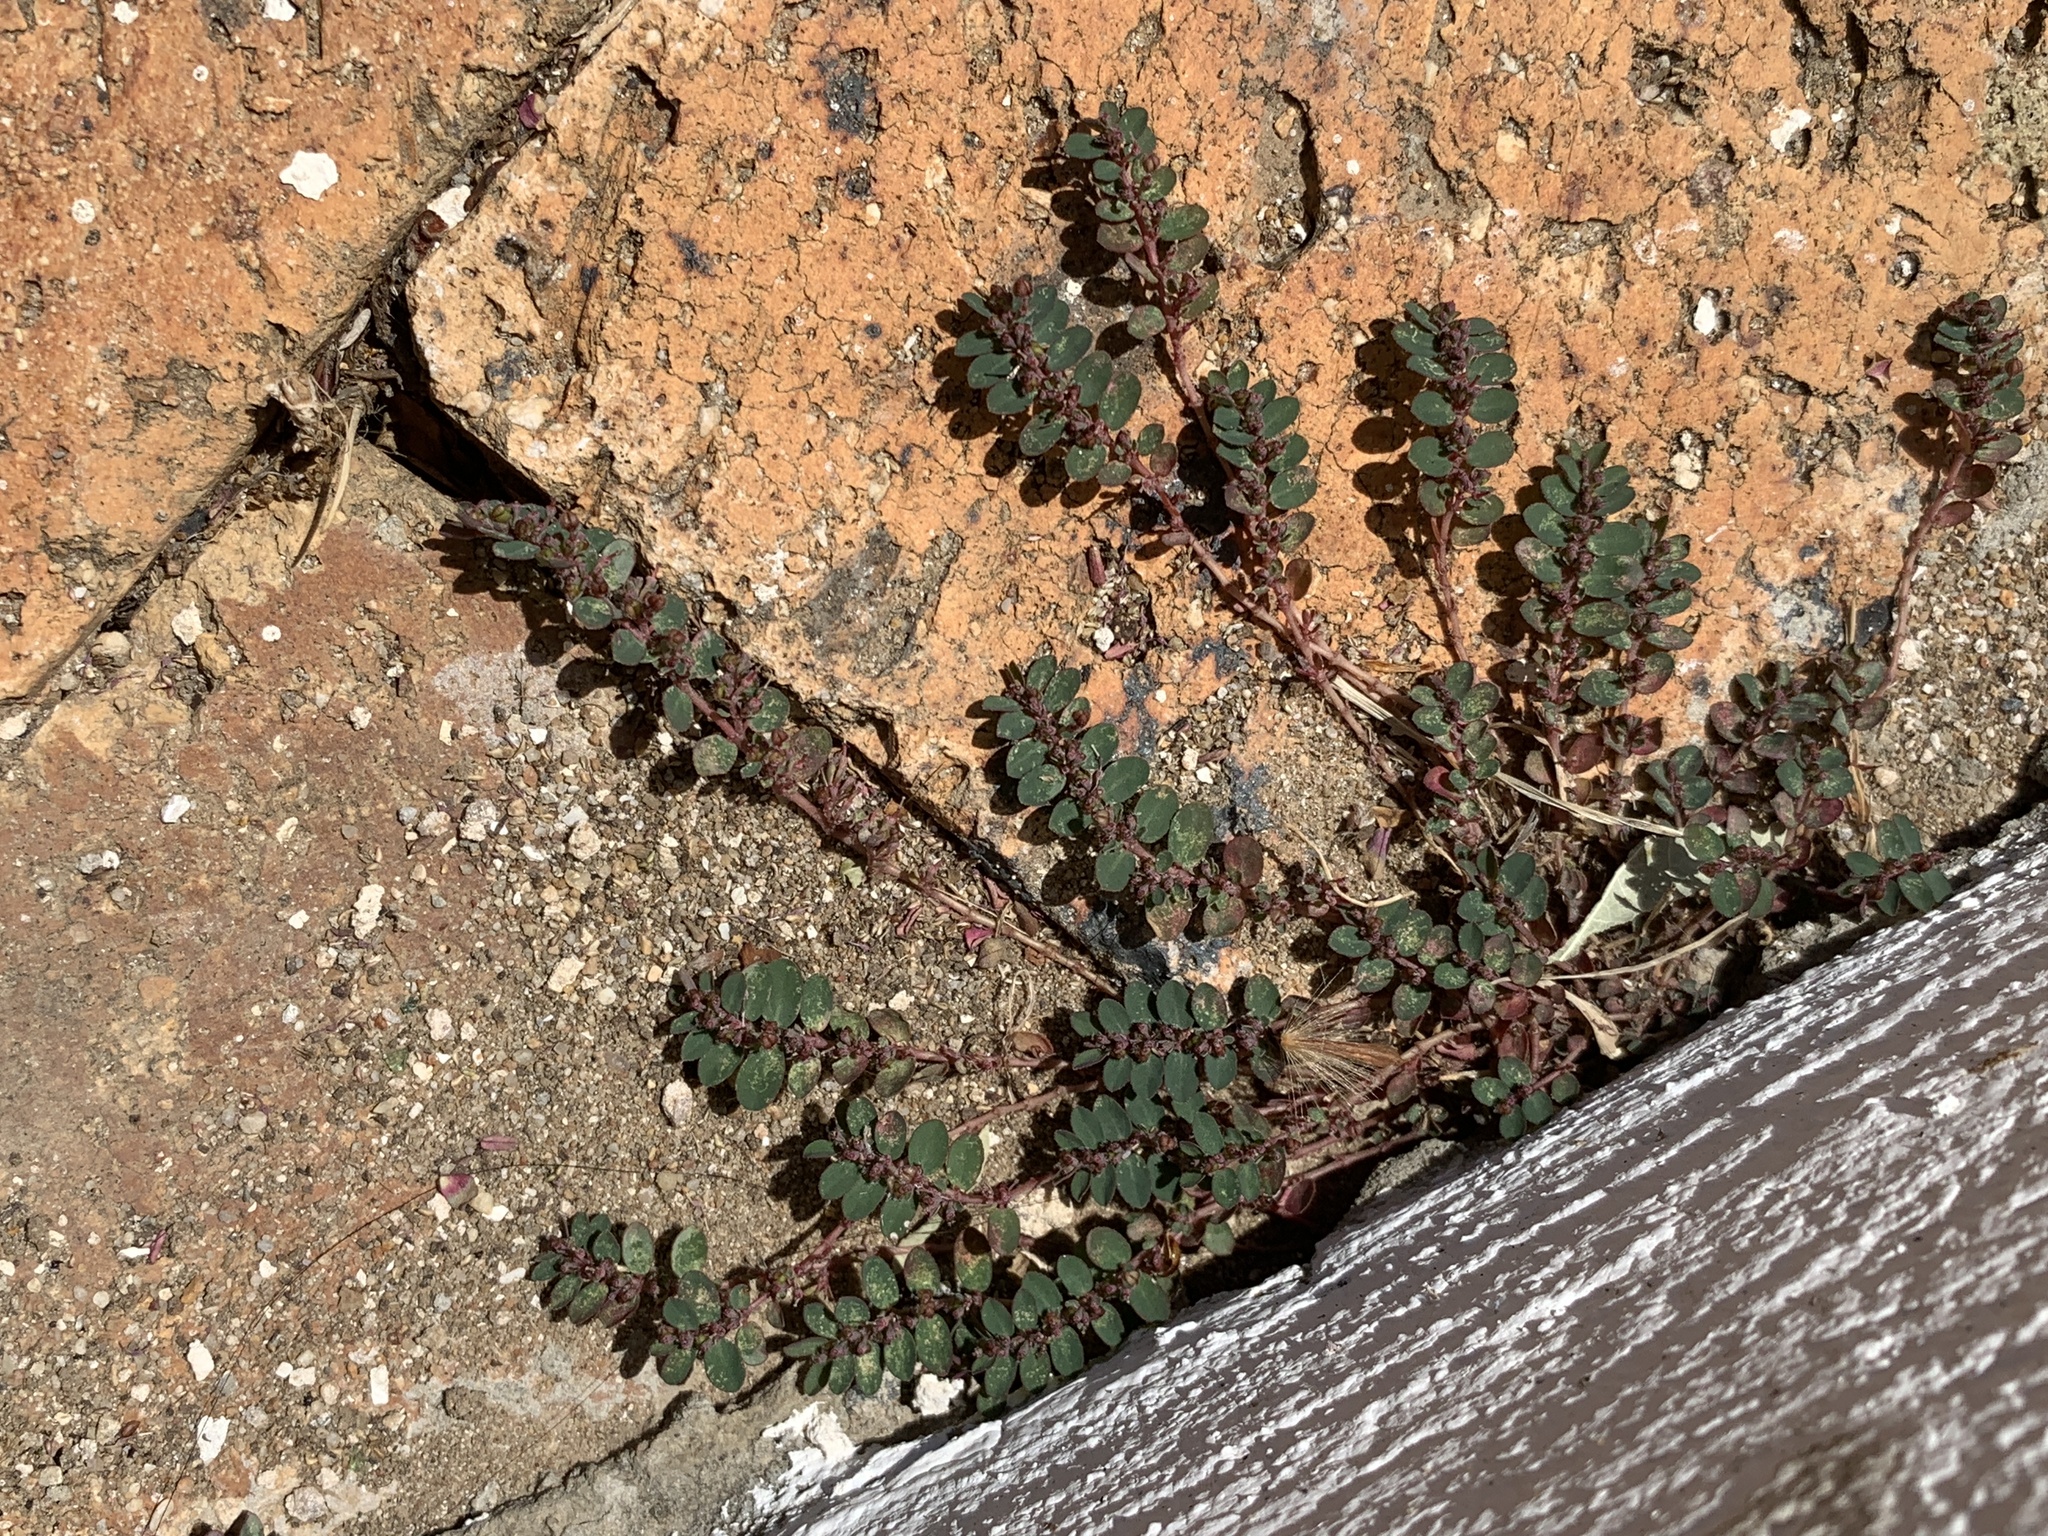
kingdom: Plantae
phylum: Tracheophyta
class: Magnoliopsida
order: Malpighiales
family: Euphorbiaceae
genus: Euphorbia
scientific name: Euphorbia prostrata
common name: Prostrate sandmat
